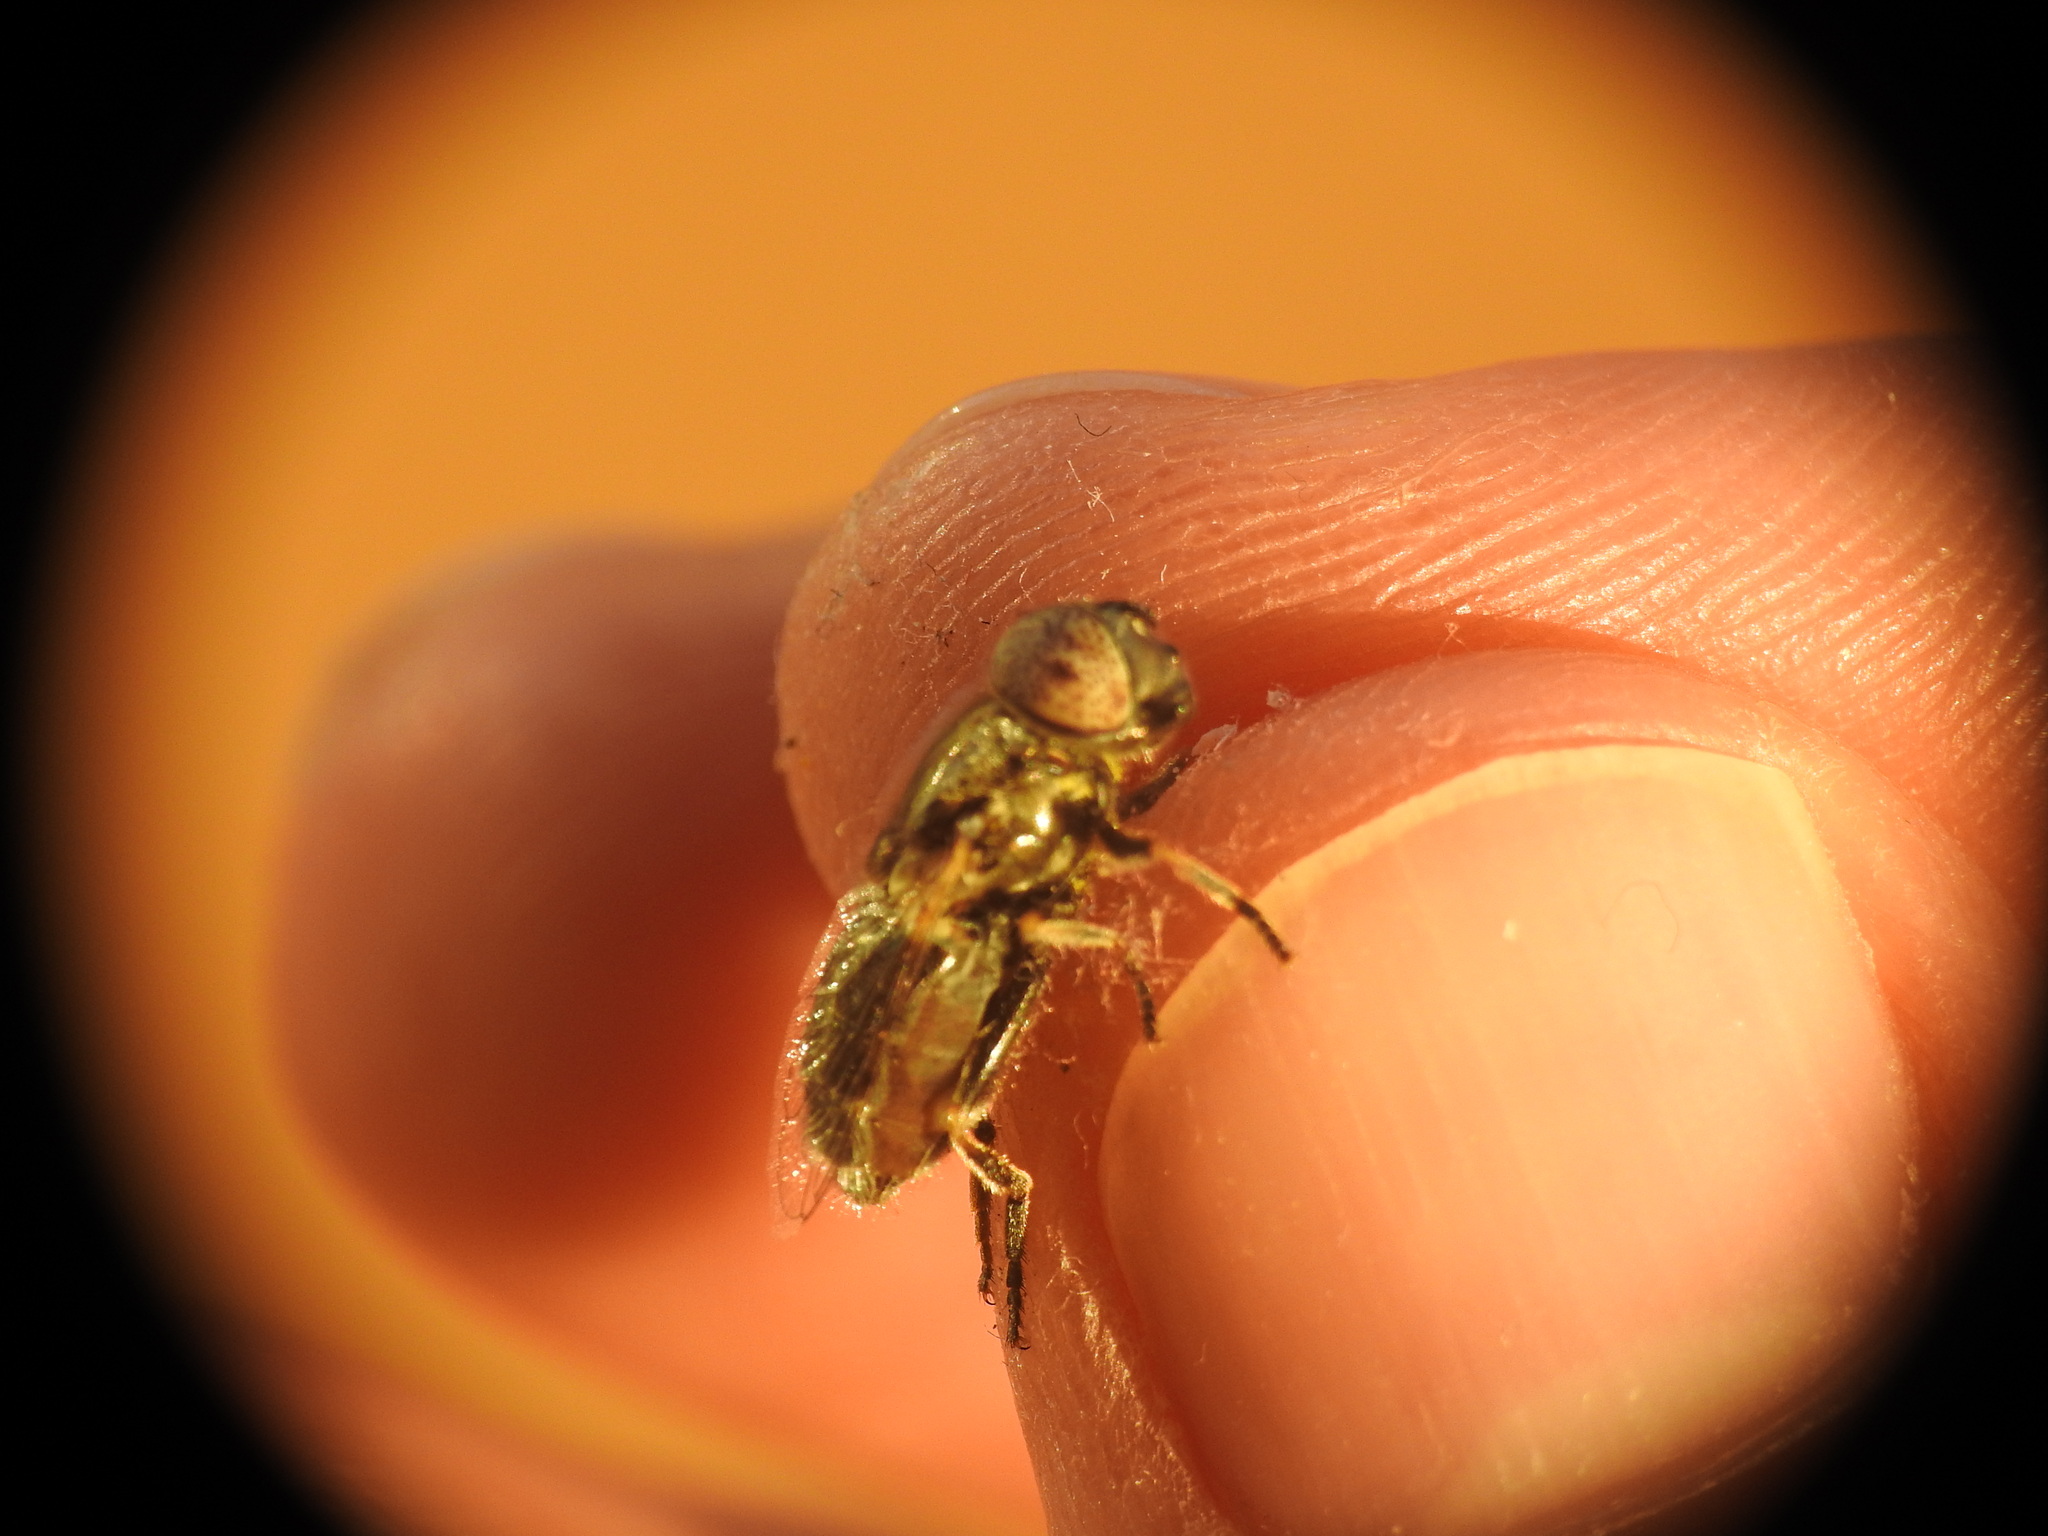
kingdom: Animalia
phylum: Arthropoda
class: Insecta
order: Diptera
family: Syrphidae
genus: Eristalinus
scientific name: Eristalinus aeneus
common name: Syrphid fly
